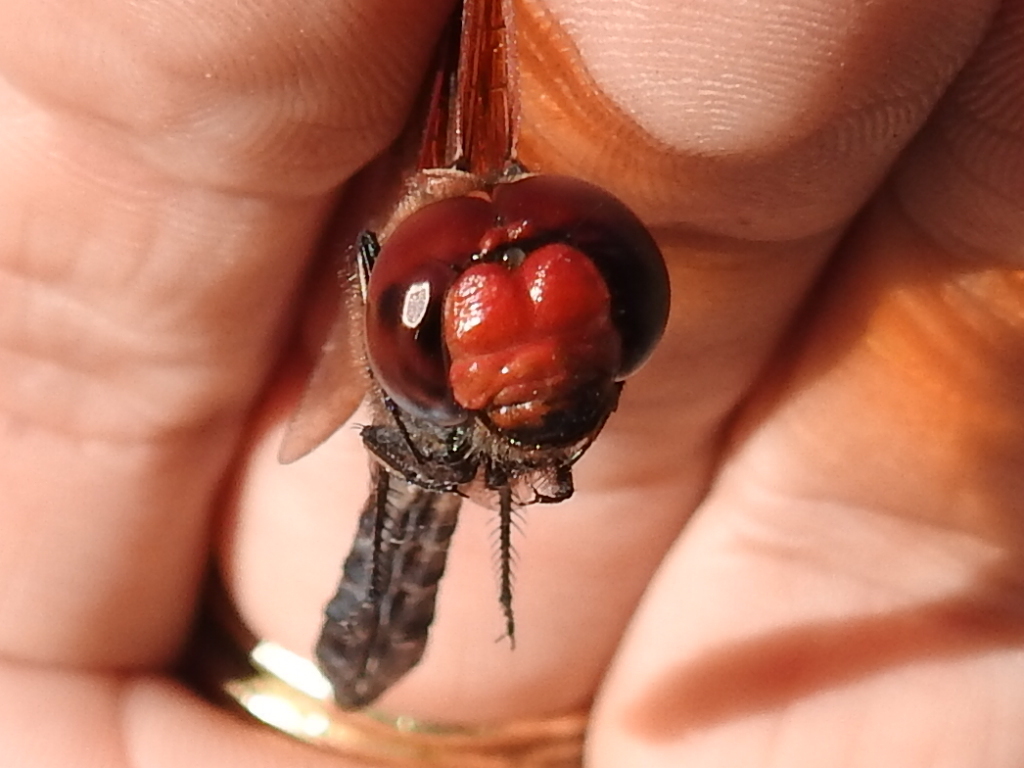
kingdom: Animalia
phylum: Arthropoda
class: Insecta
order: Odonata
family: Libellulidae
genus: Paltothemis
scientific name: Paltothemis lineatipes
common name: Red rock skimmer
